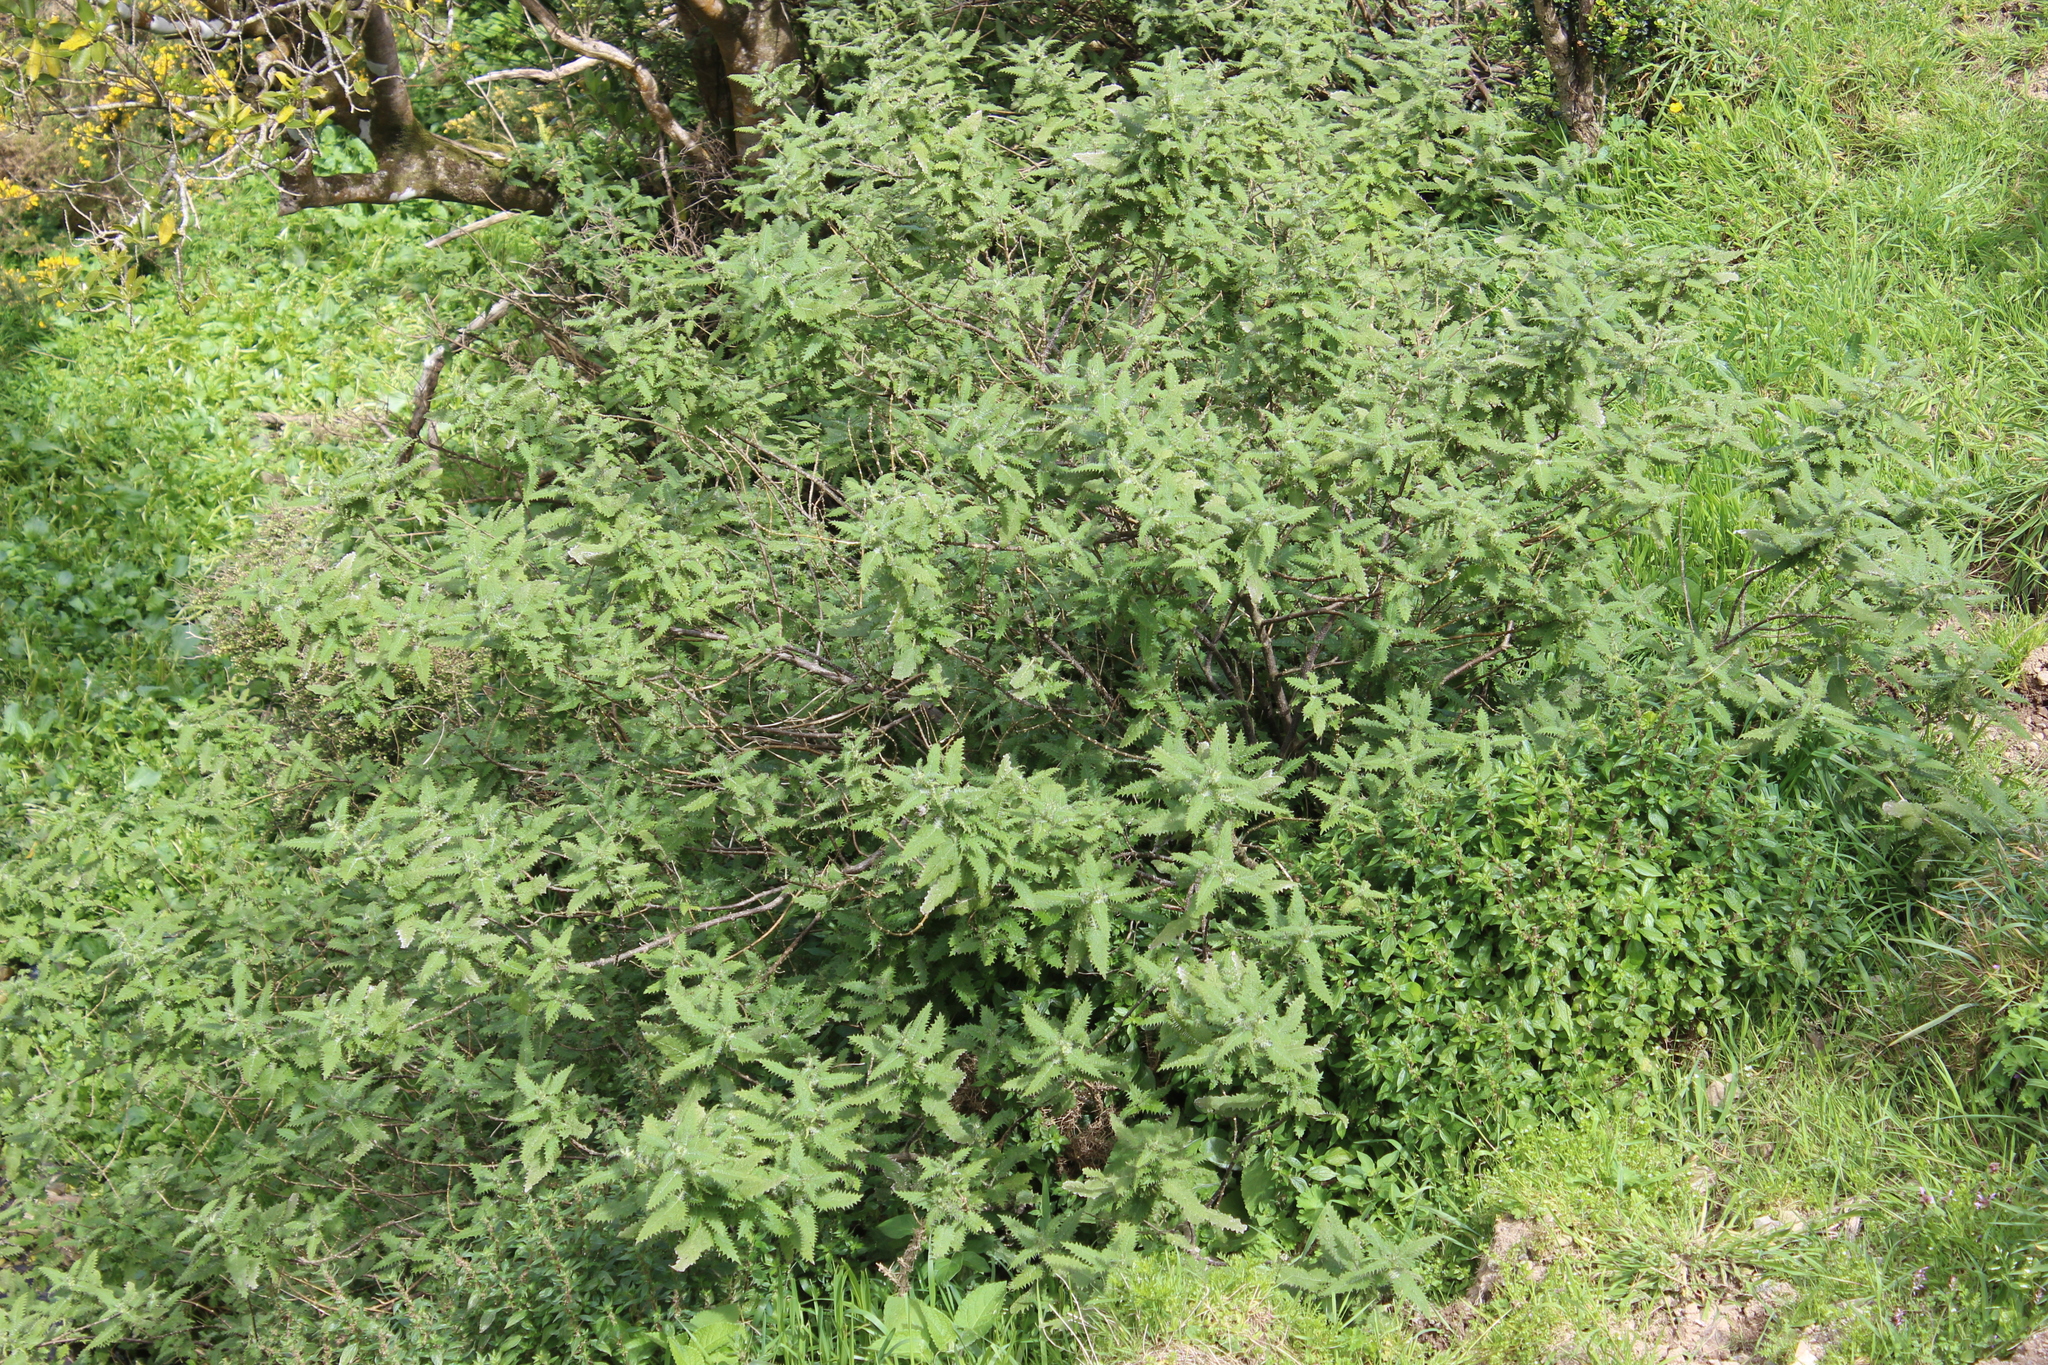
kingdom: Plantae
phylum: Tracheophyta
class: Magnoliopsida
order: Rosales
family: Urticaceae
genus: Urtica
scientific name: Urtica ferox
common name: Tree nettle
